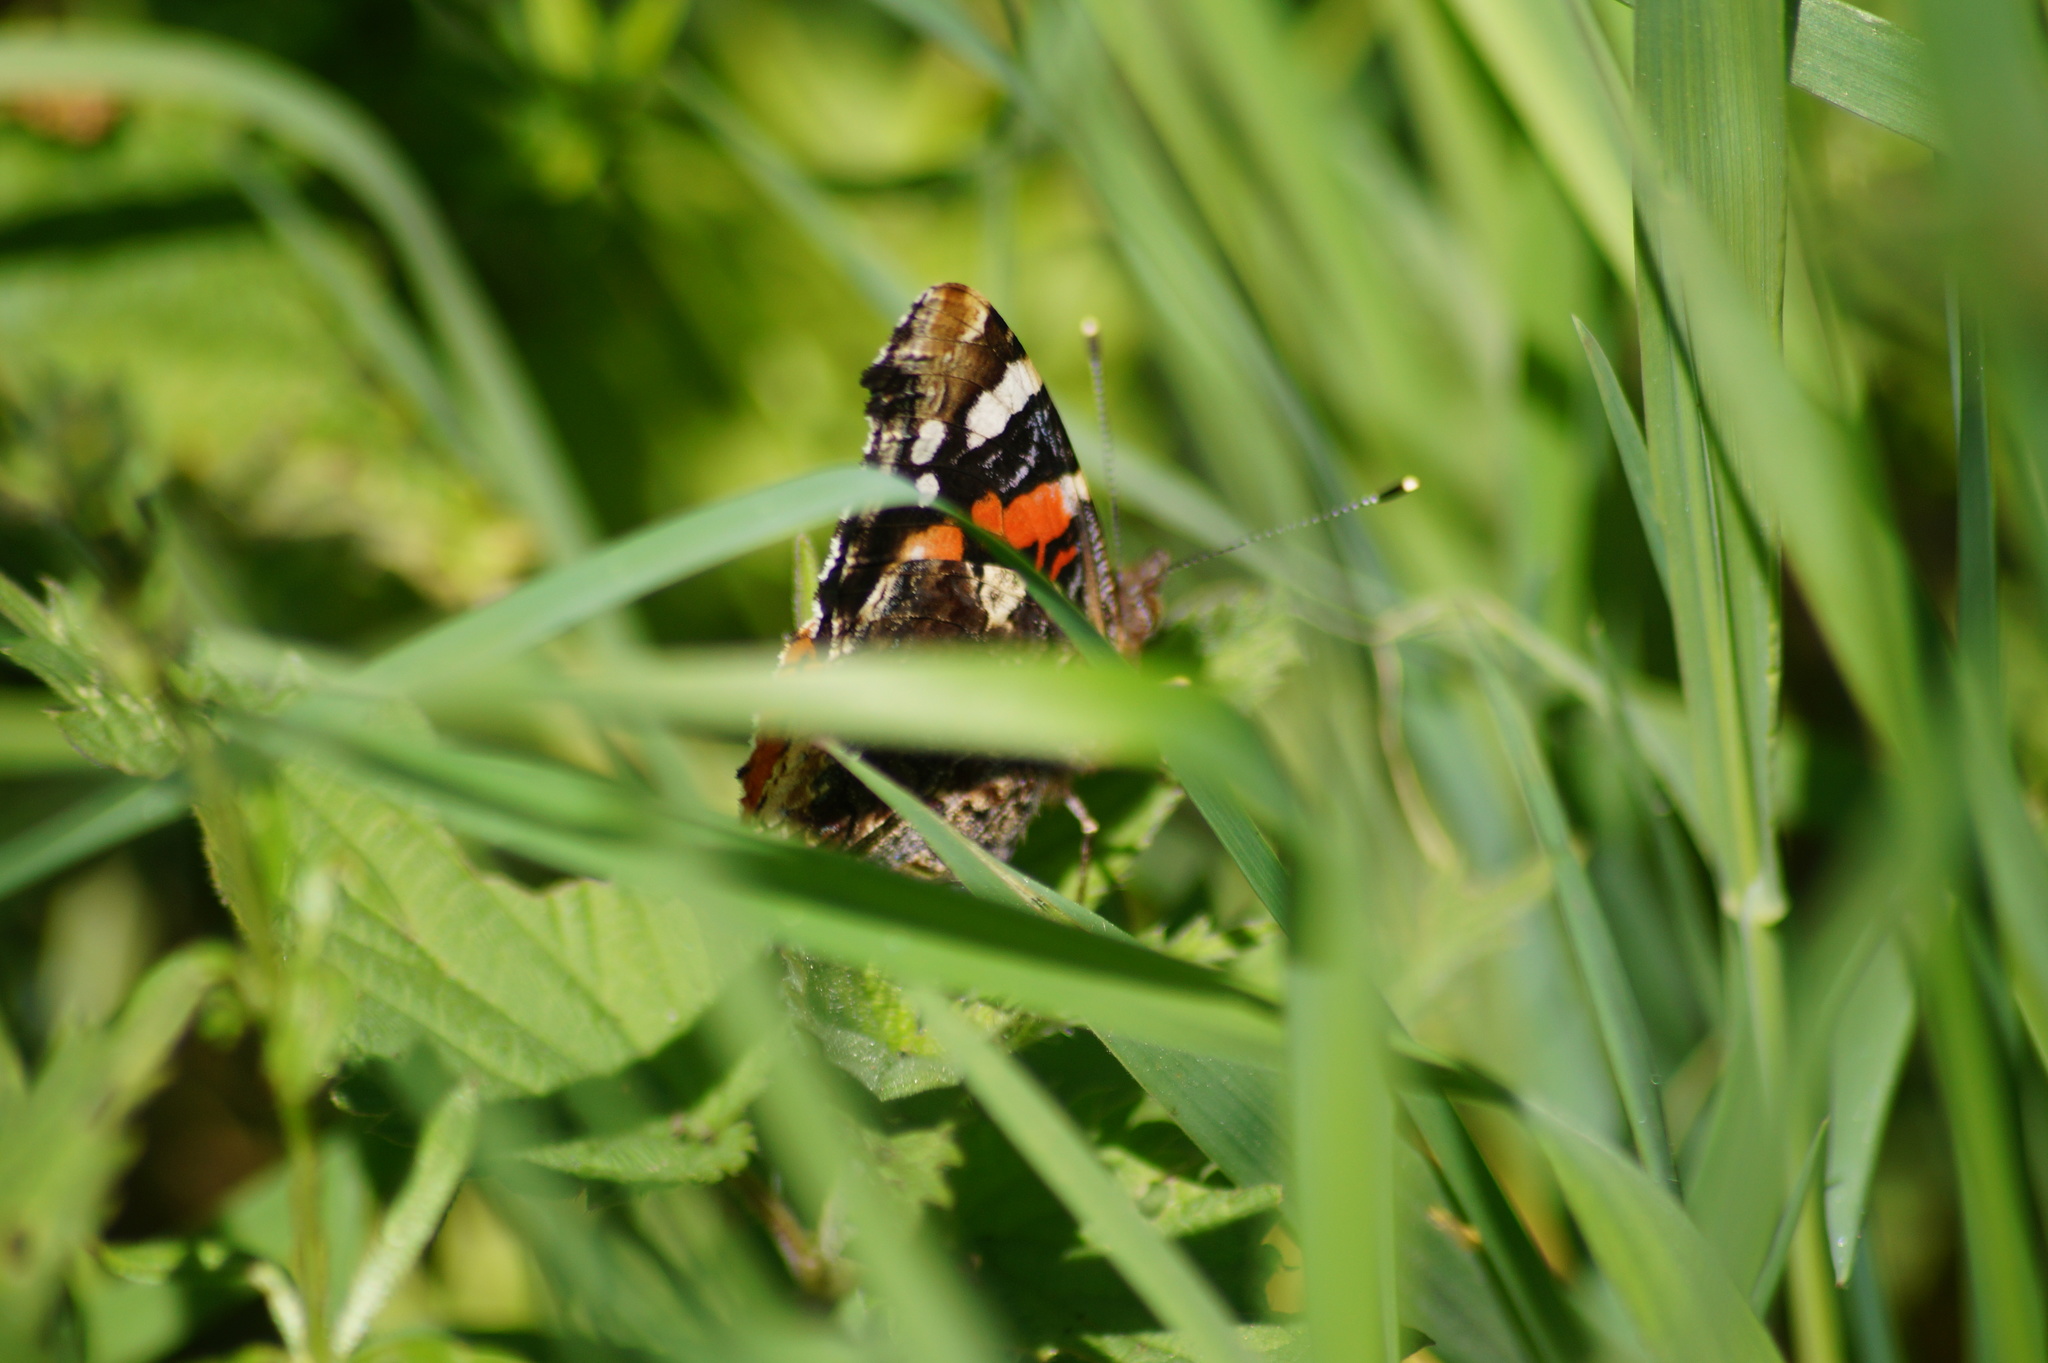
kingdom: Animalia
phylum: Arthropoda
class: Insecta
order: Lepidoptera
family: Nymphalidae
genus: Vanessa
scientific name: Vanessa atalanta
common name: Red admiral
